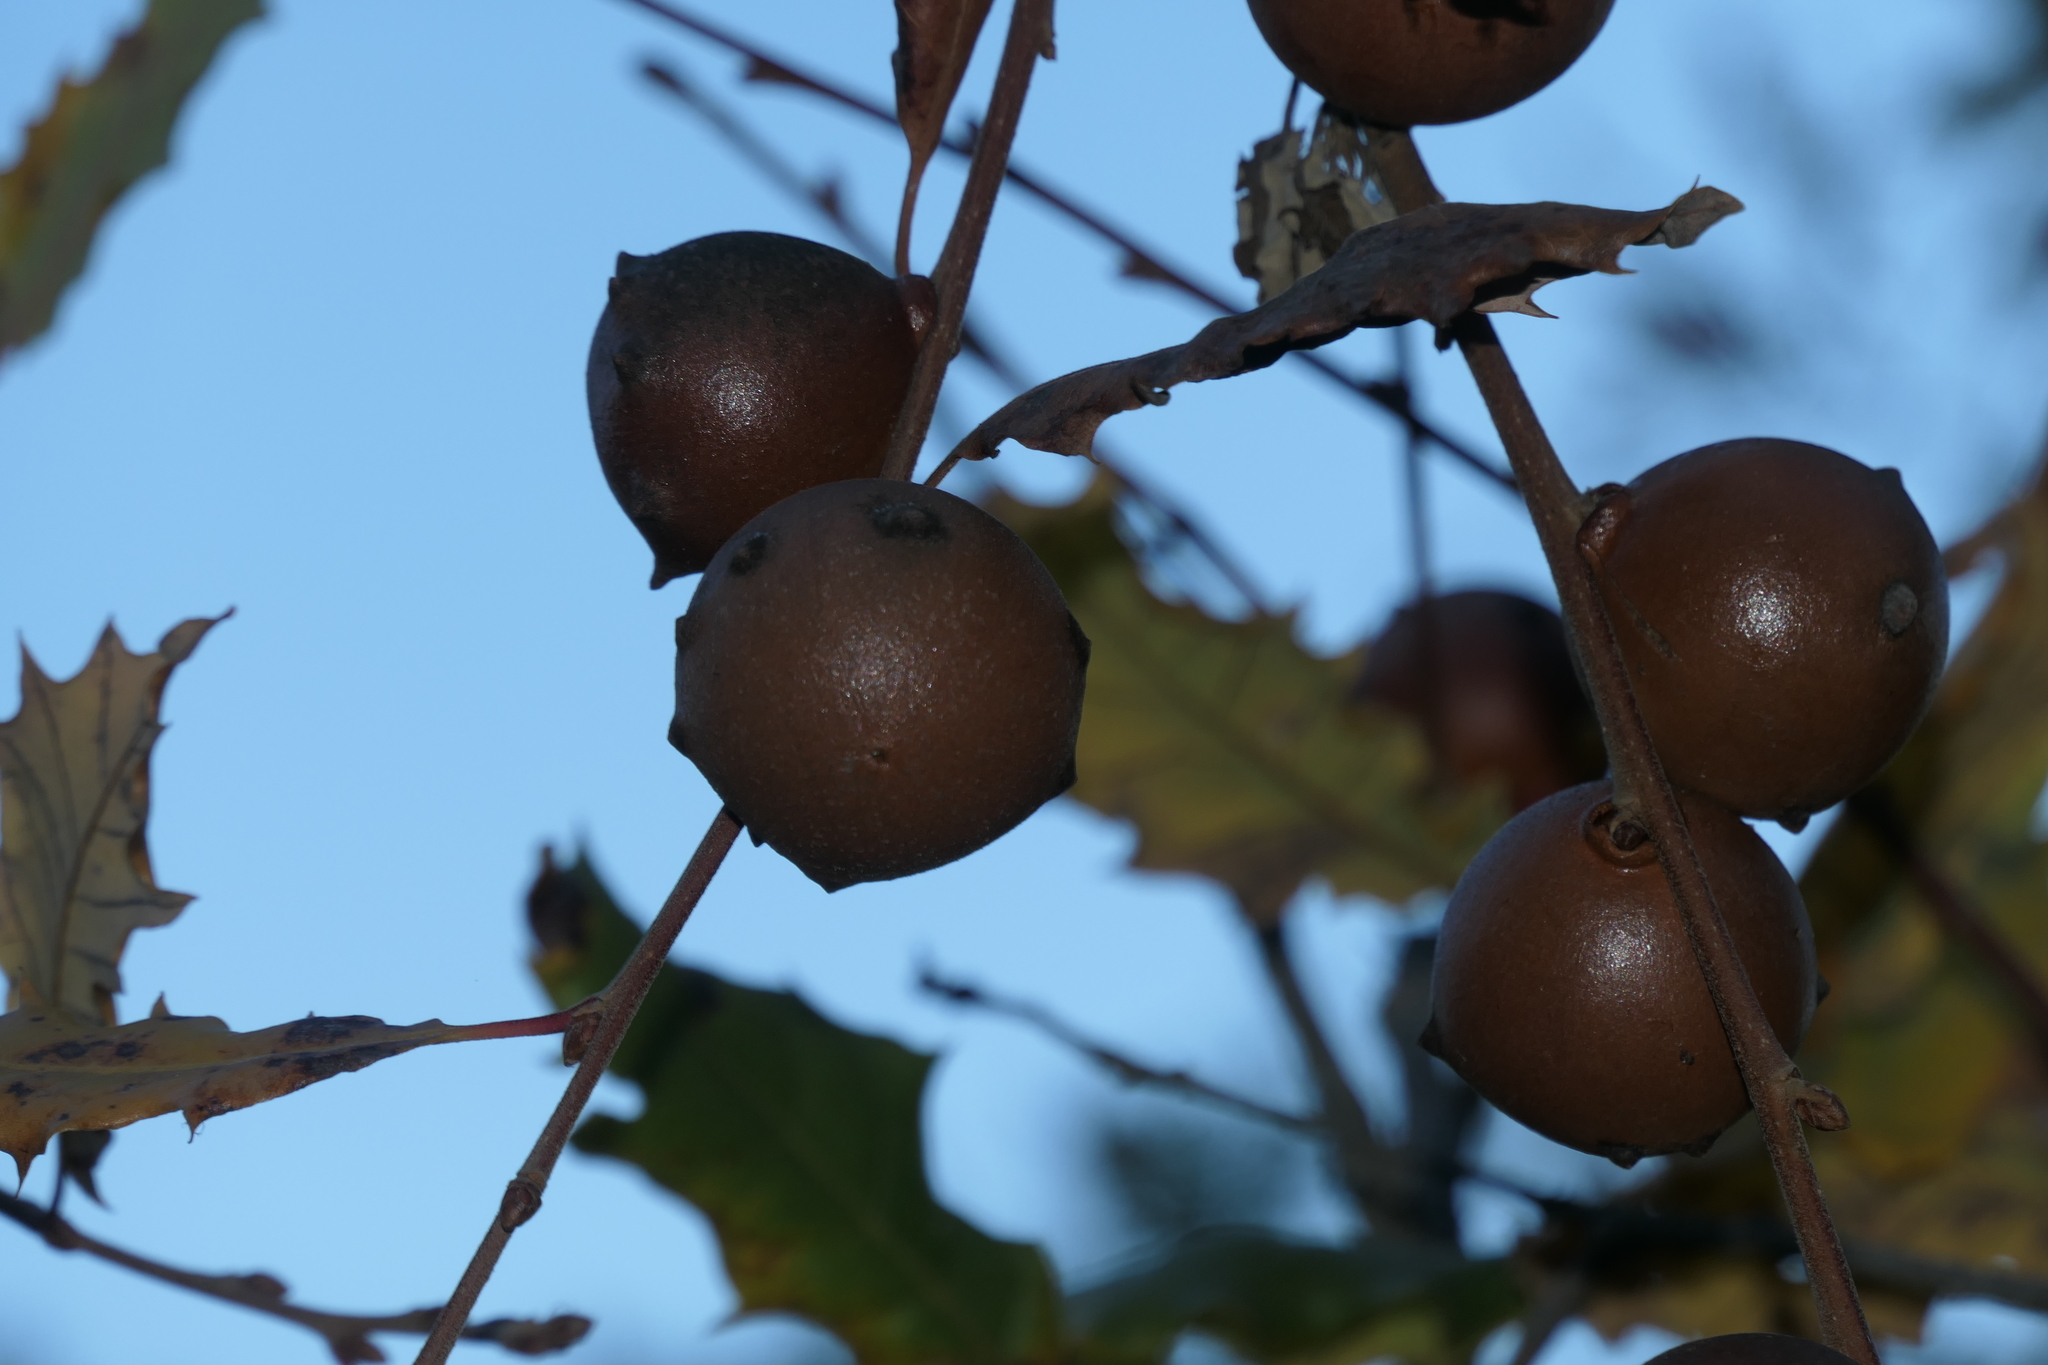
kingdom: Animalia
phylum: Arthropoda
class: Insecta
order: Hymenoptera
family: Cynipidae
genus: Andricus
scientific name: Andricus quercustozae
